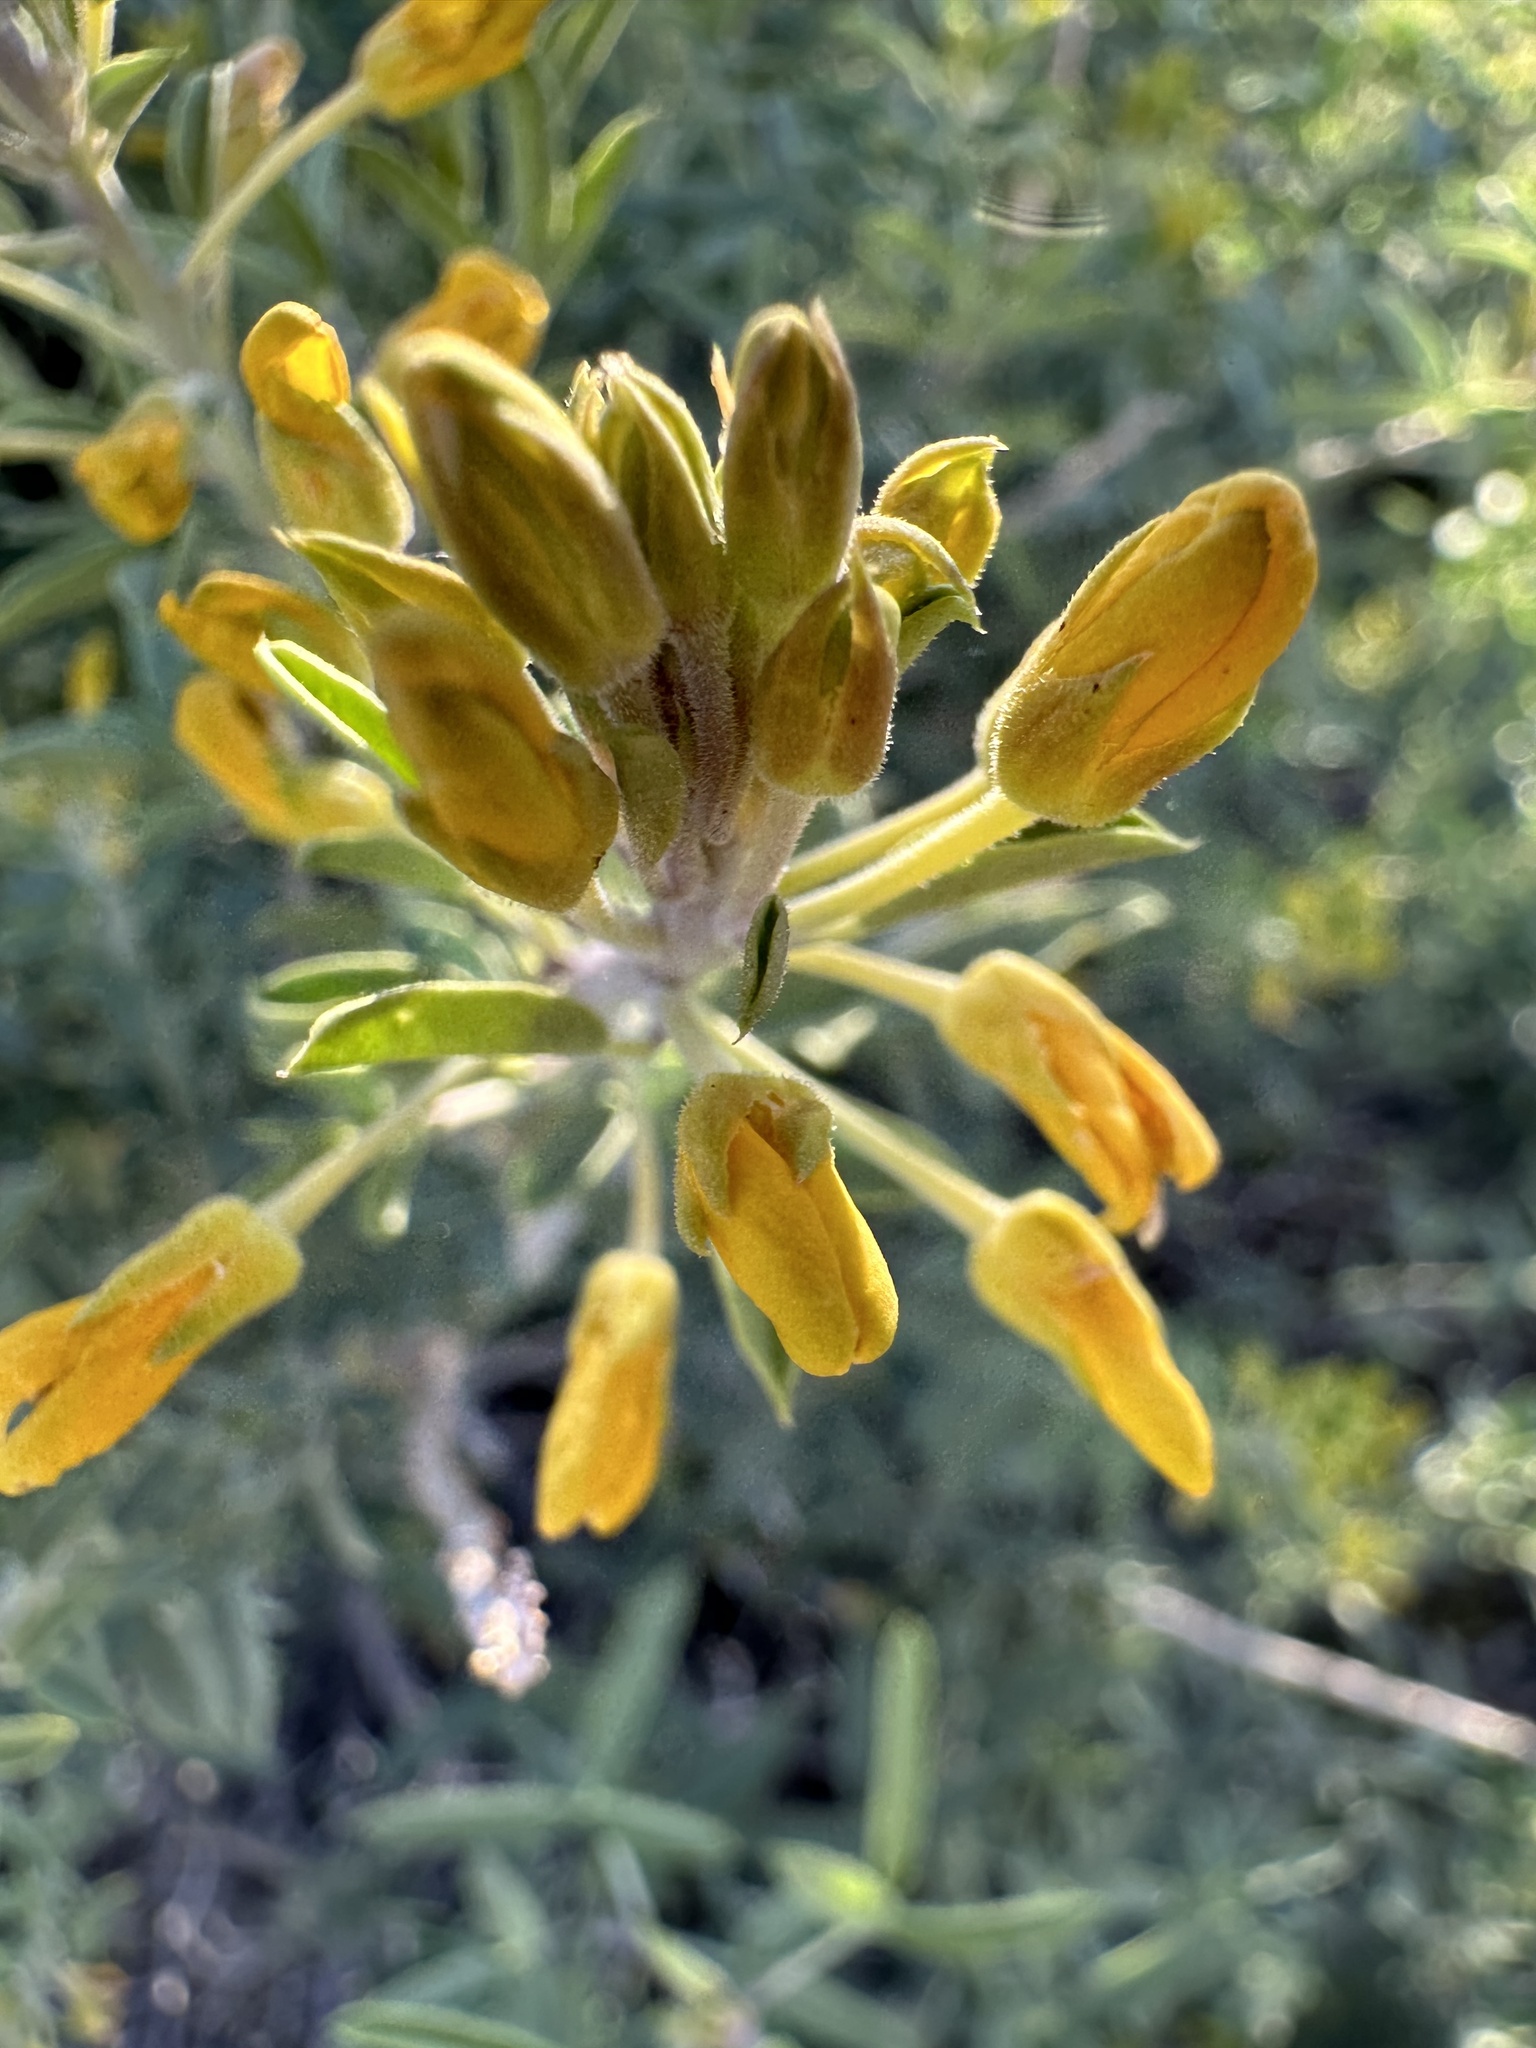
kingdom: Plantae
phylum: Tracheophyta
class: Magnoliopsida
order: Brassicales
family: Cleomaceae
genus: Cleomella
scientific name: Cleomella arborea
